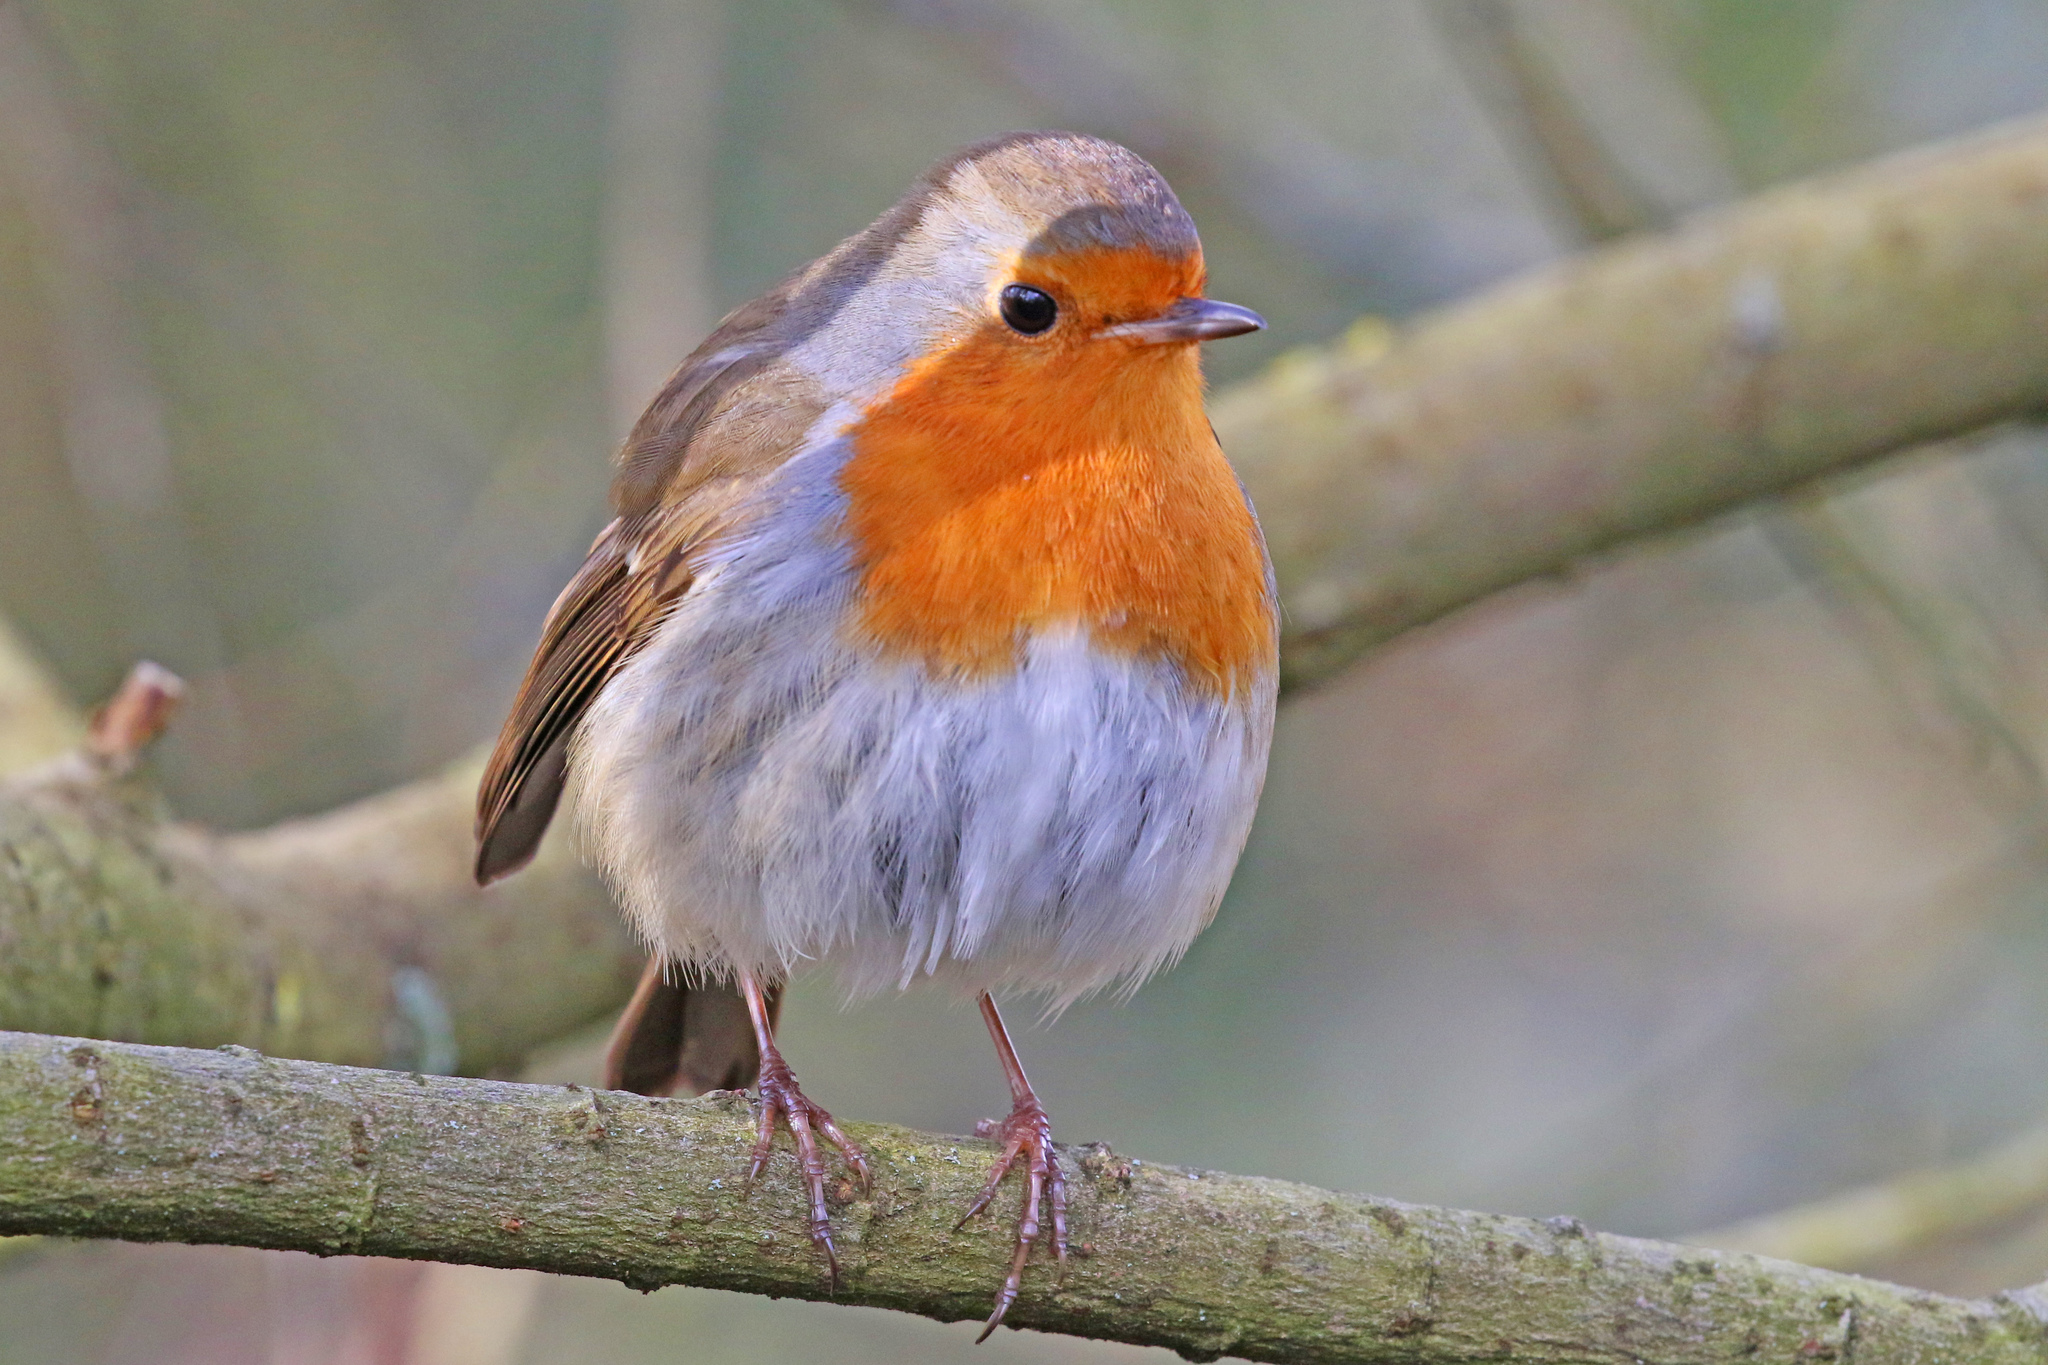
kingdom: Animalia
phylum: Chordata
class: Aves
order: Passeriformes
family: Muscicapidae
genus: Erithacus
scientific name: Erithacus rubecula
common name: European robin
